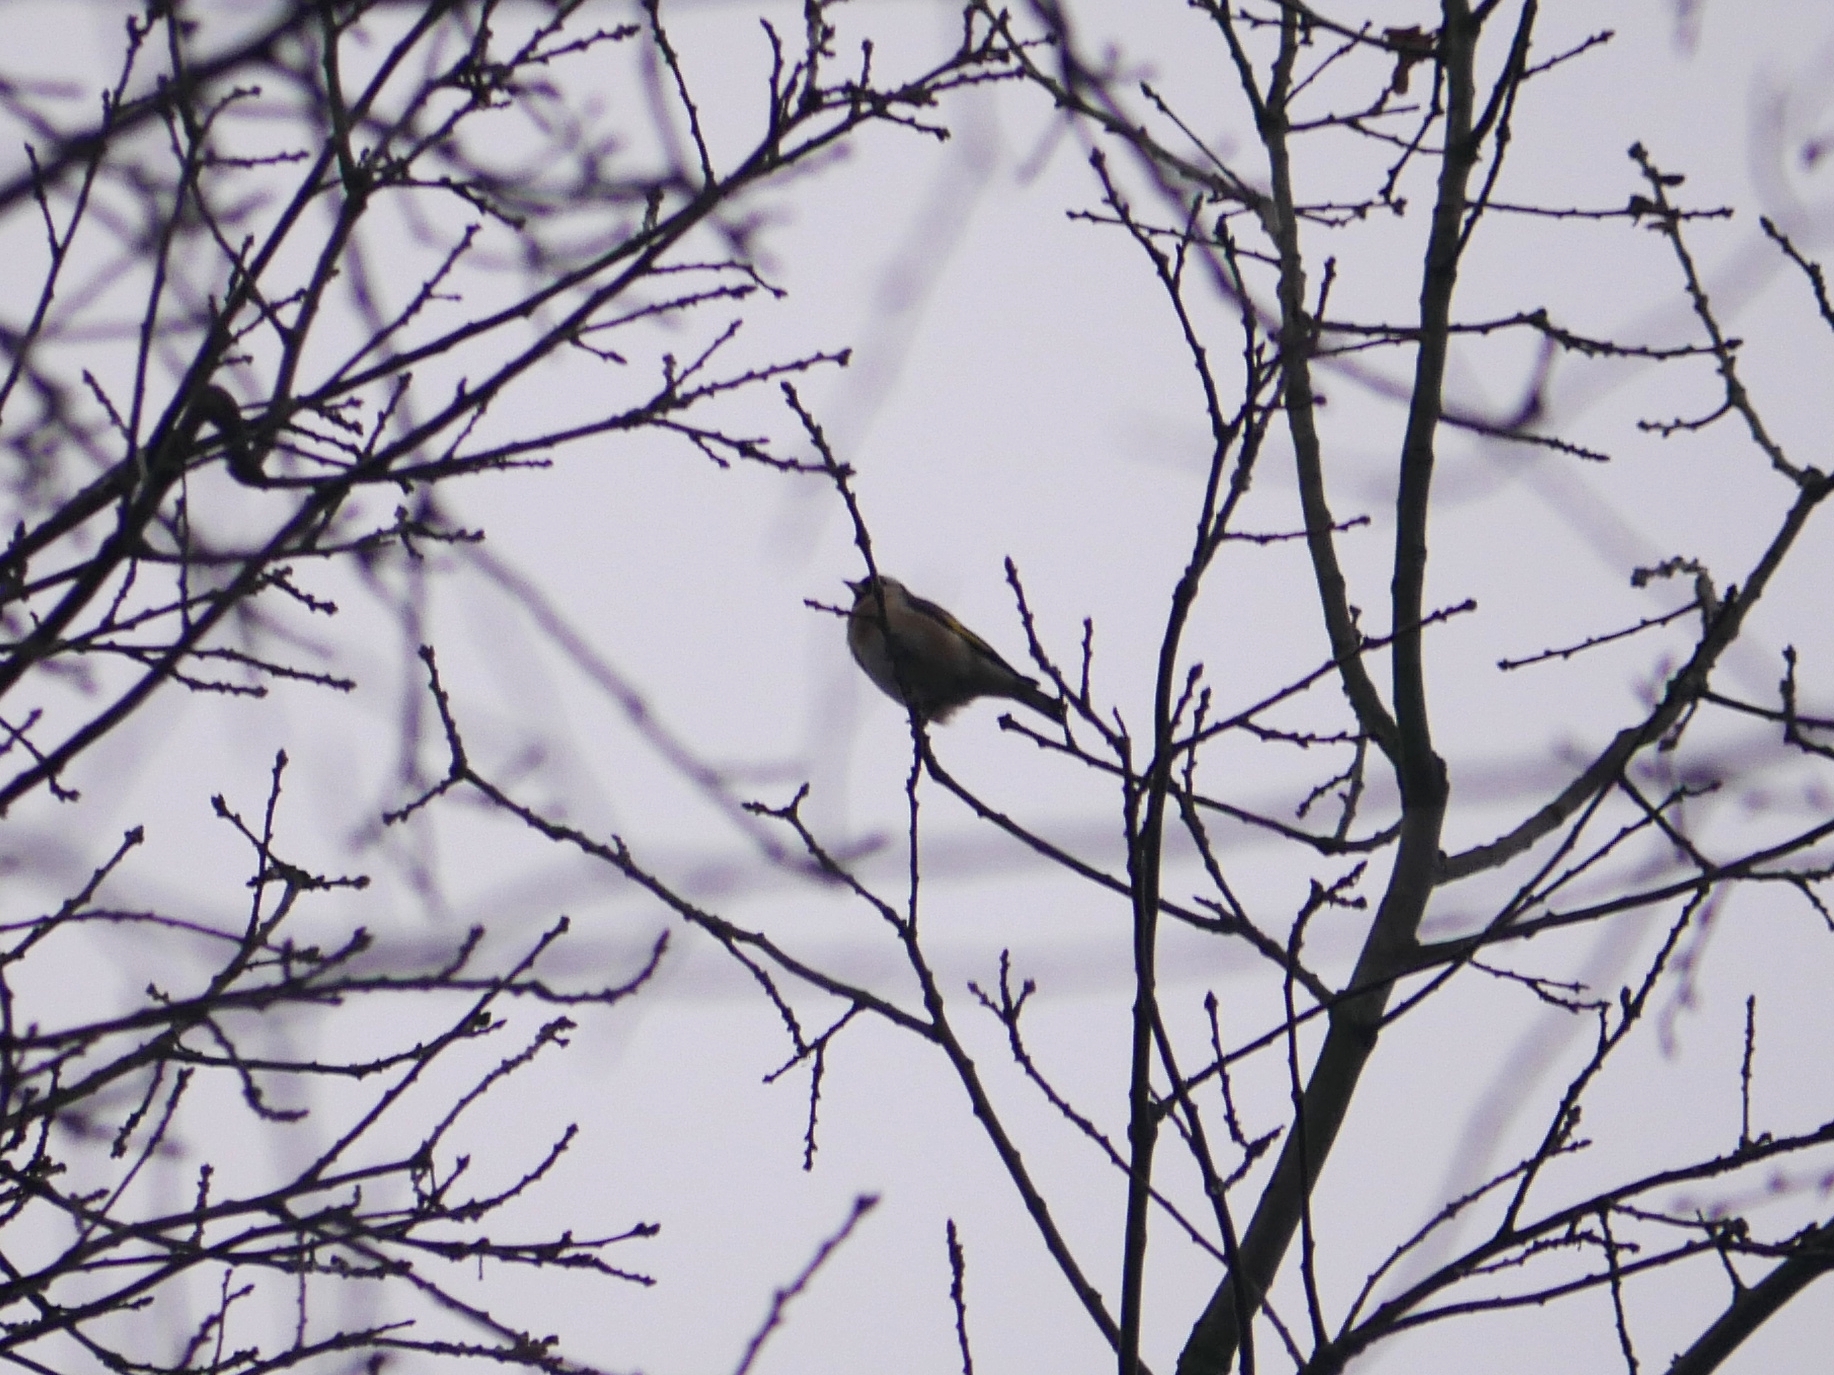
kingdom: Animalia
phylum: Chordata
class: Aves
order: Passeriformes
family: Fringillidae
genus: Carduelis
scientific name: Carduelis carduelis
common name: European goldfinch
